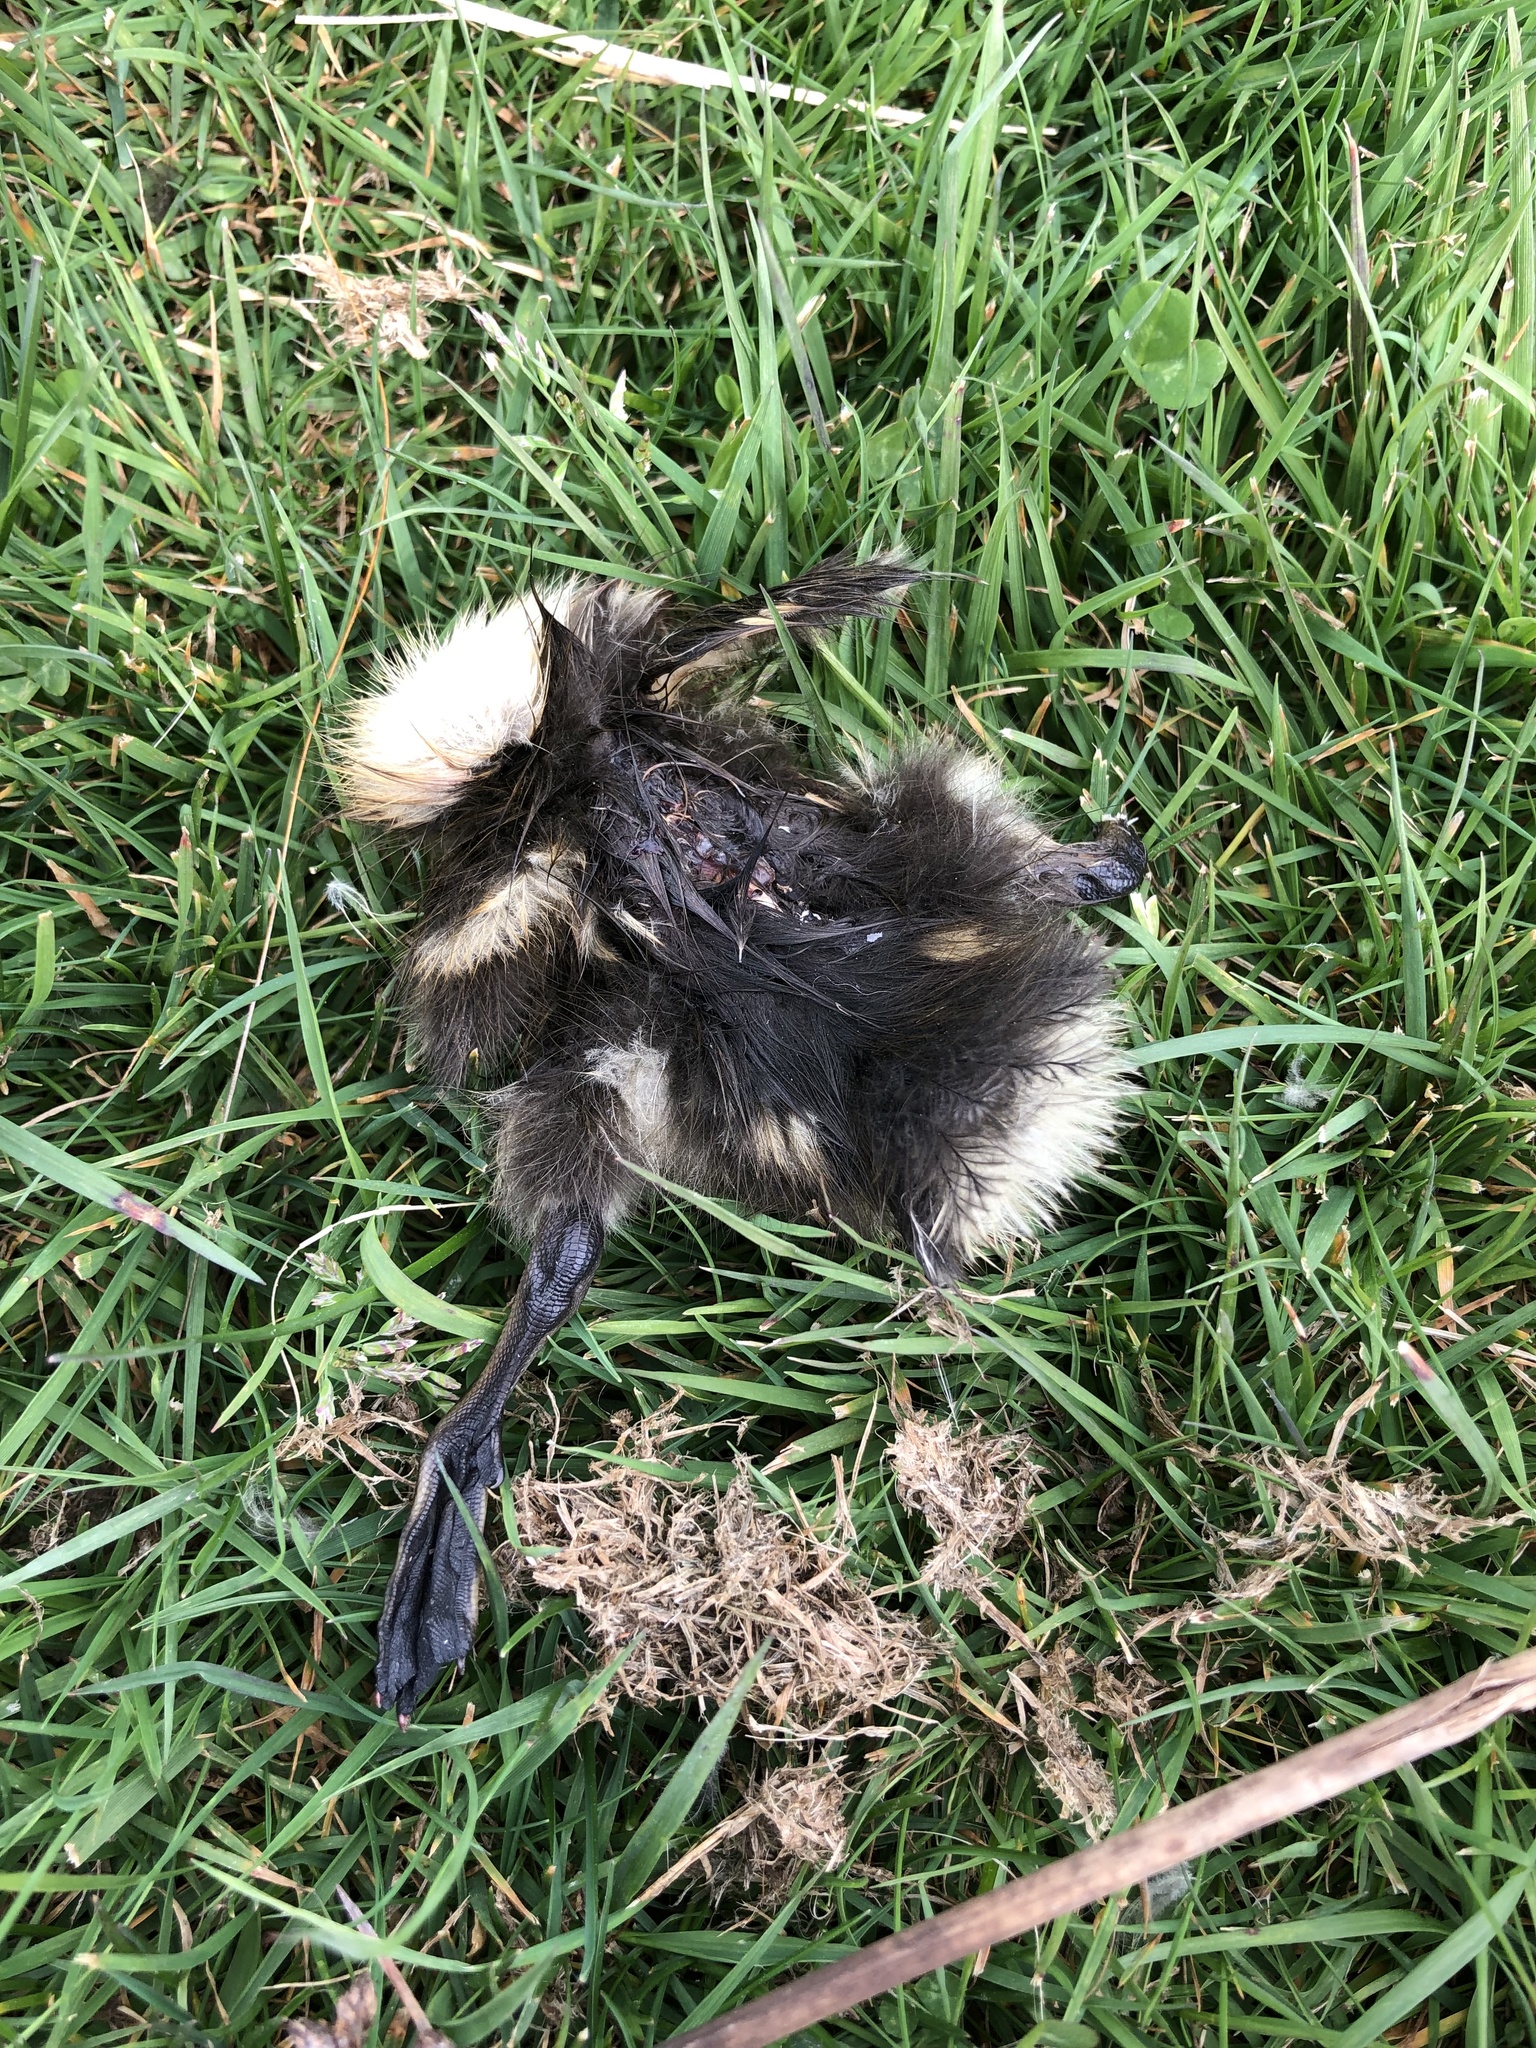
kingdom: Animalia
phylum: Chordata
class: Aves
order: Anseriformes
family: Anatidae
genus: Anas
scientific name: Anas platyrhynchos
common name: Mallard
